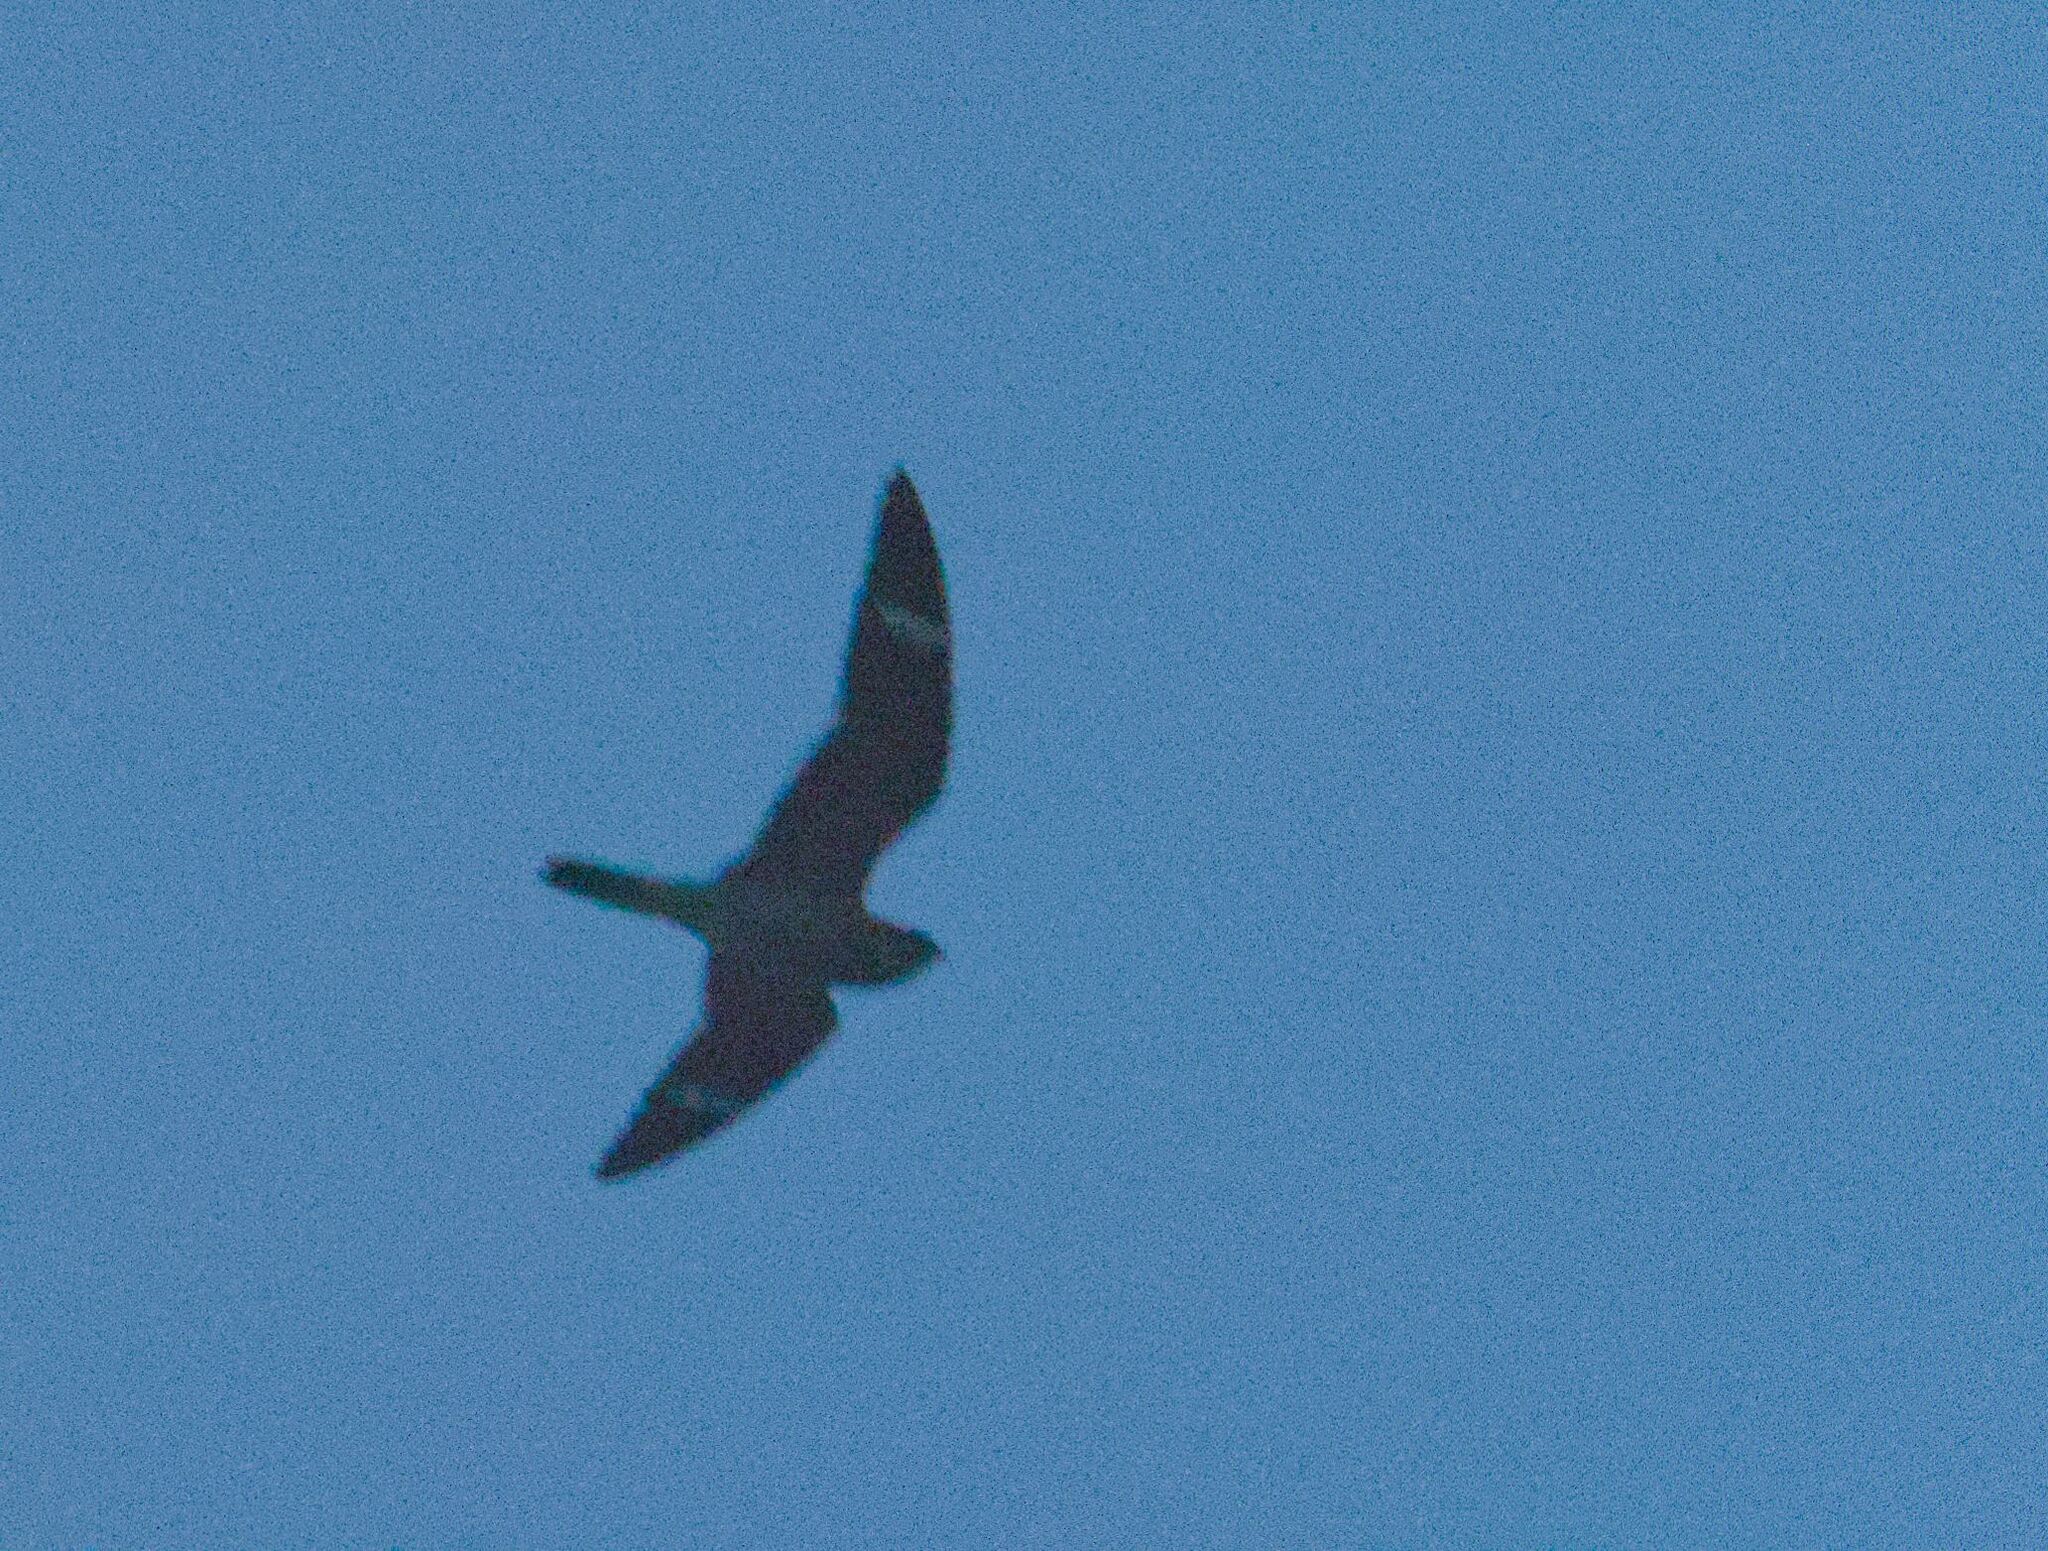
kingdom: Animalia
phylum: Chordata
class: Aves
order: Caprimulgiformes
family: Caprimulgidae
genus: Chordeiles
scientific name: Chordeiles minor
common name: Common nighthawk
